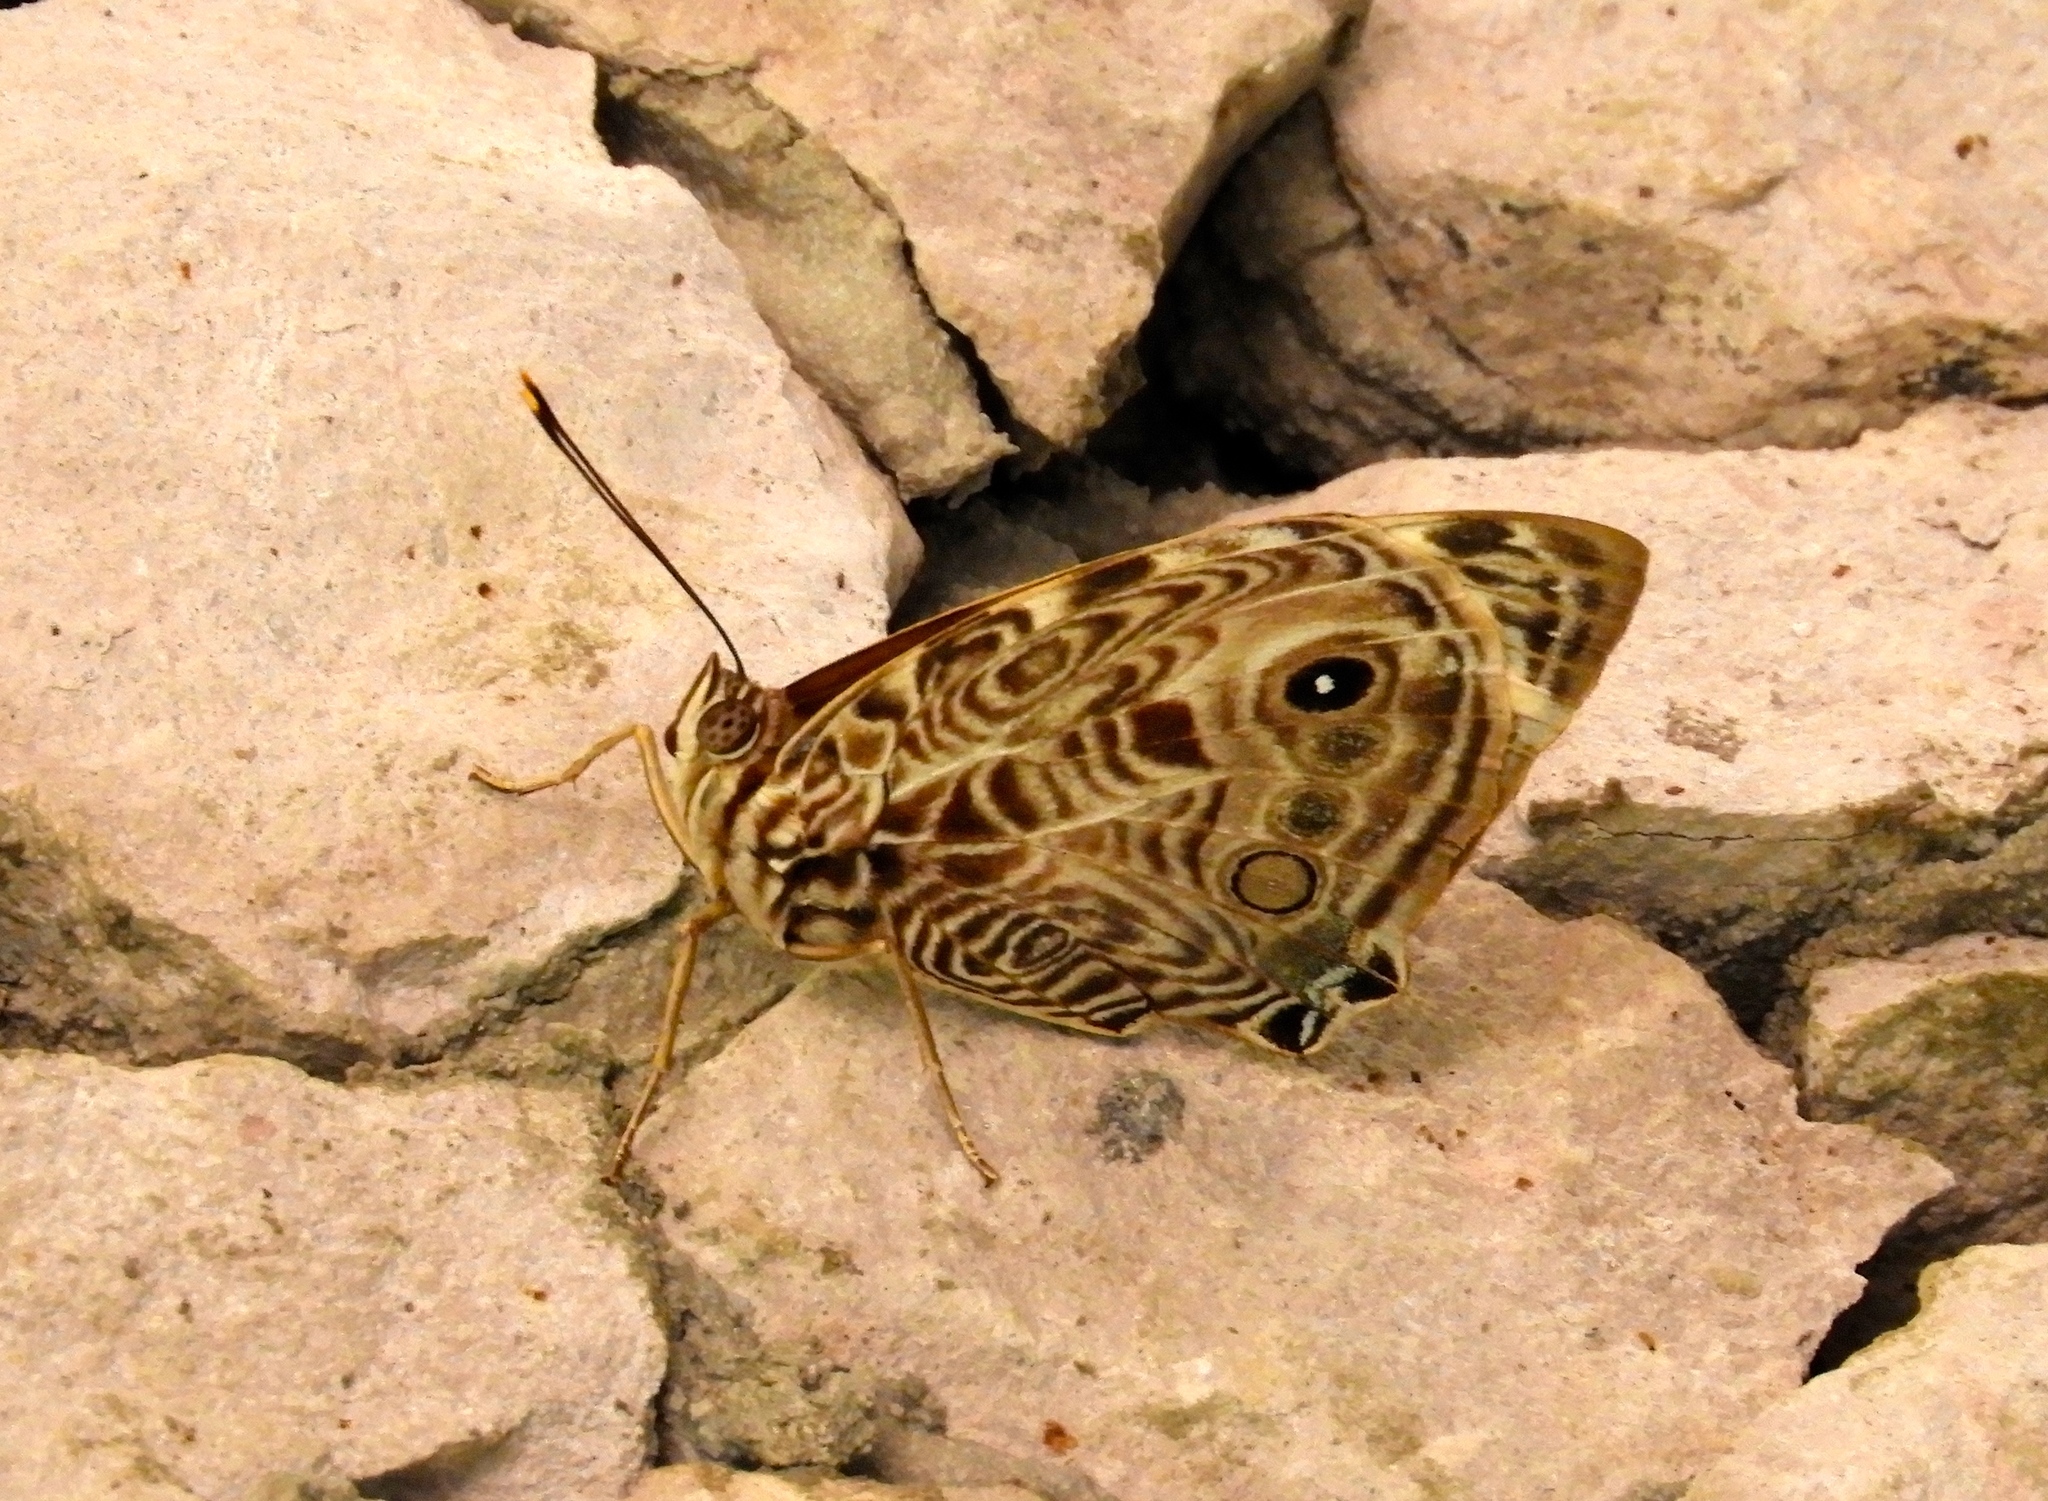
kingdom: Animalia
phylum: Arthropoda
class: Insecta
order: Lepidoptera
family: Nymphalidae
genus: Smyrna
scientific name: Smyrna blomfildia
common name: Blomfild's beauty
